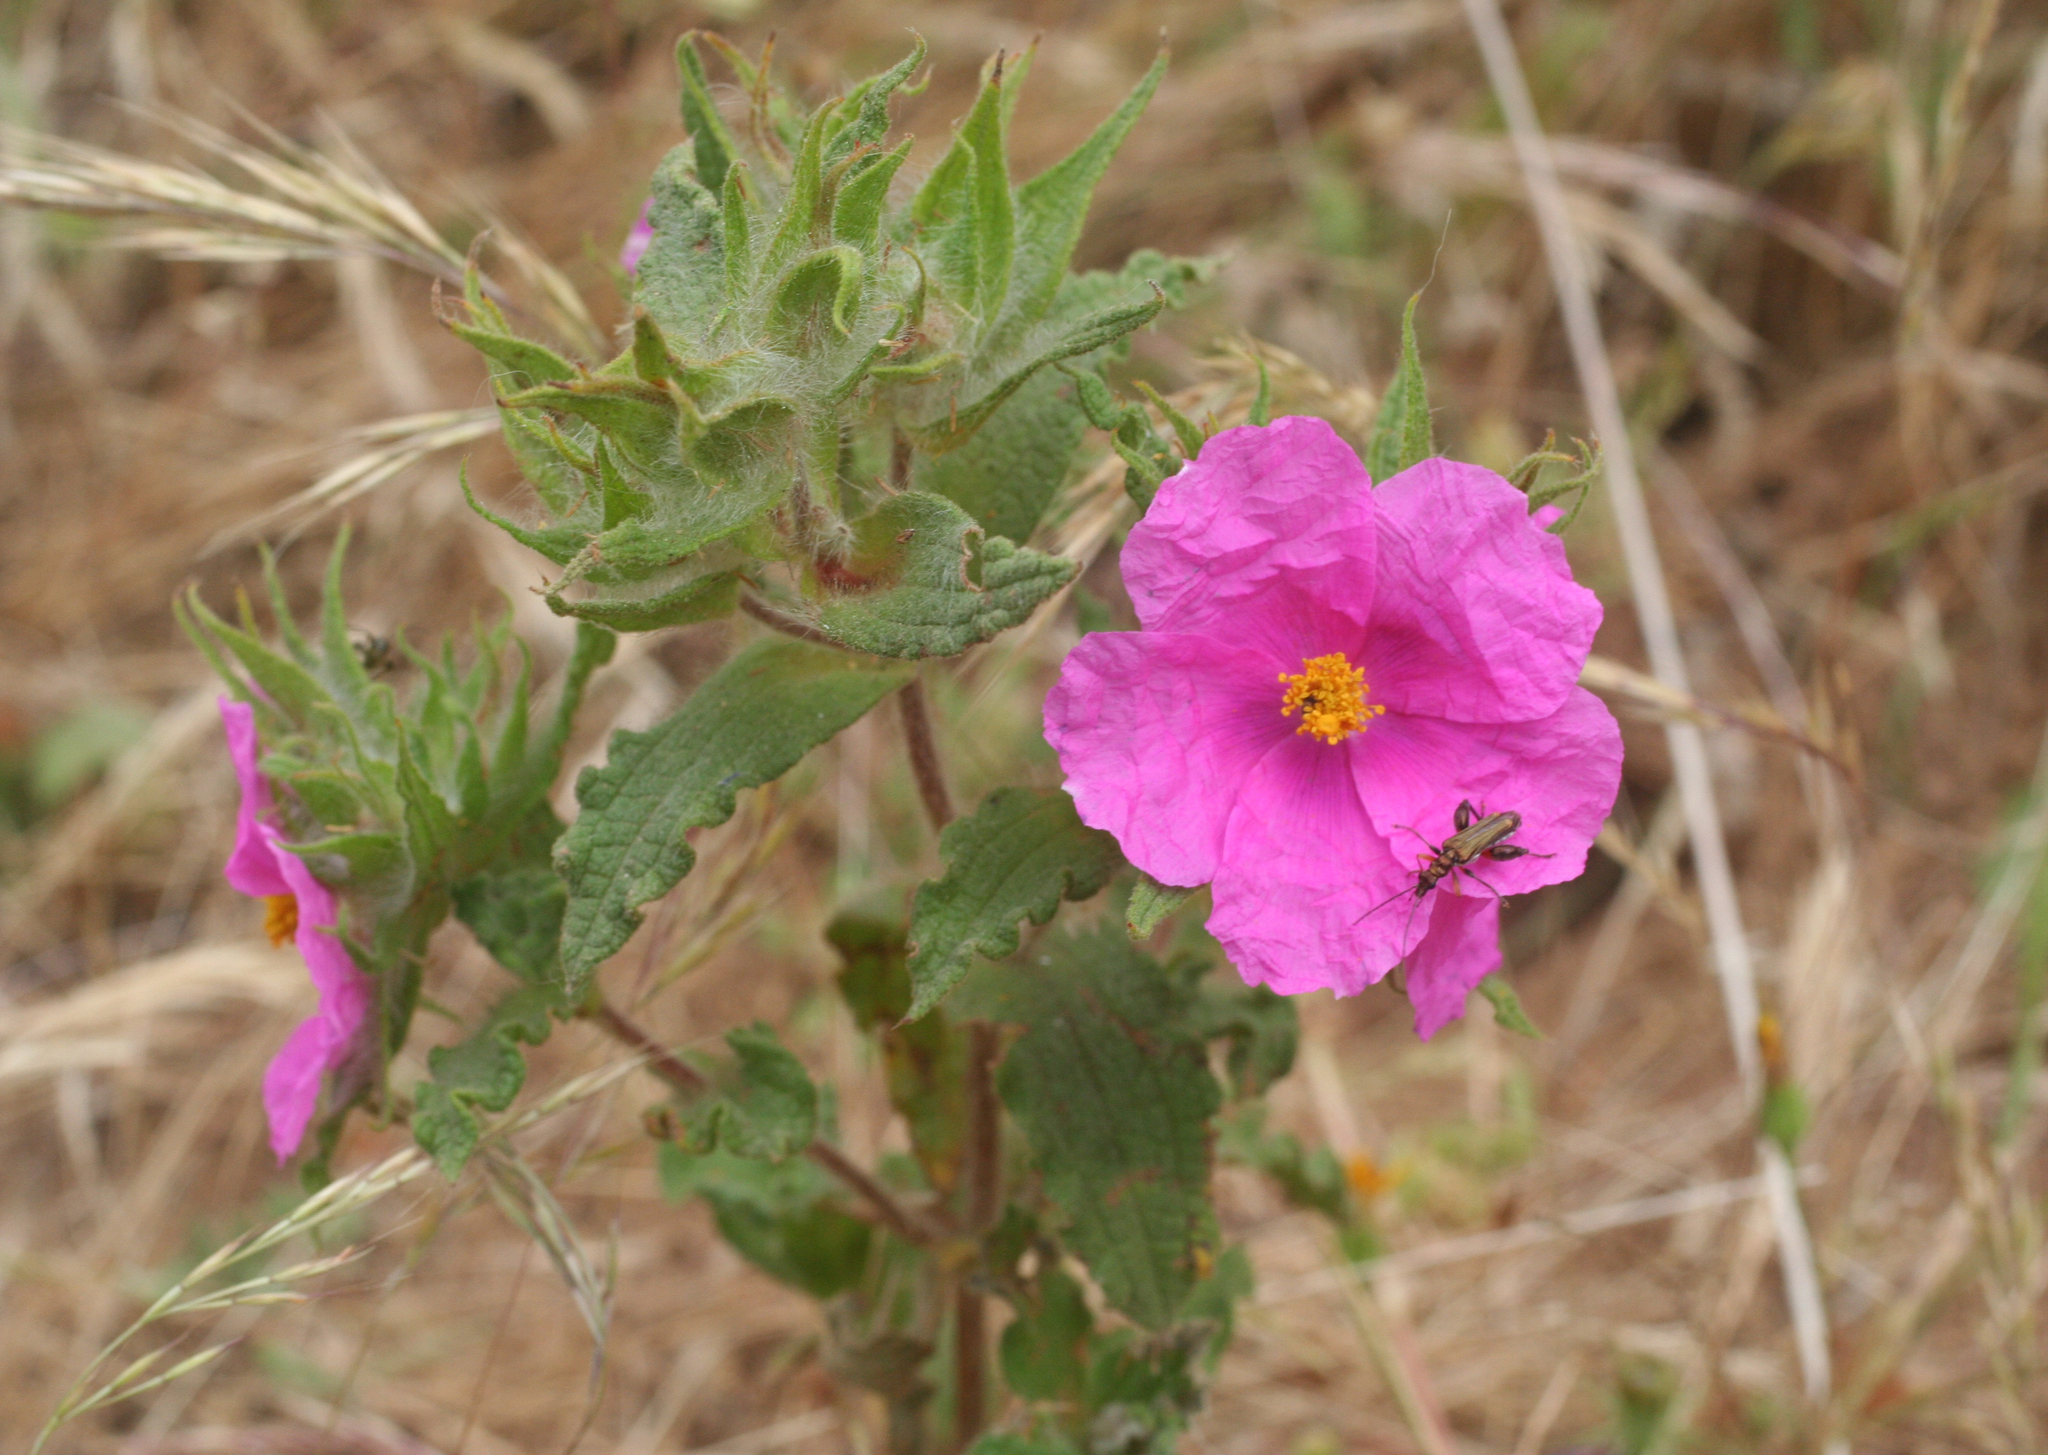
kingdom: Plantae
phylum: Tracheophyta
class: Magnoliopsida
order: Malvales
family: Cistaceae
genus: Cistus
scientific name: Cistus crispus
